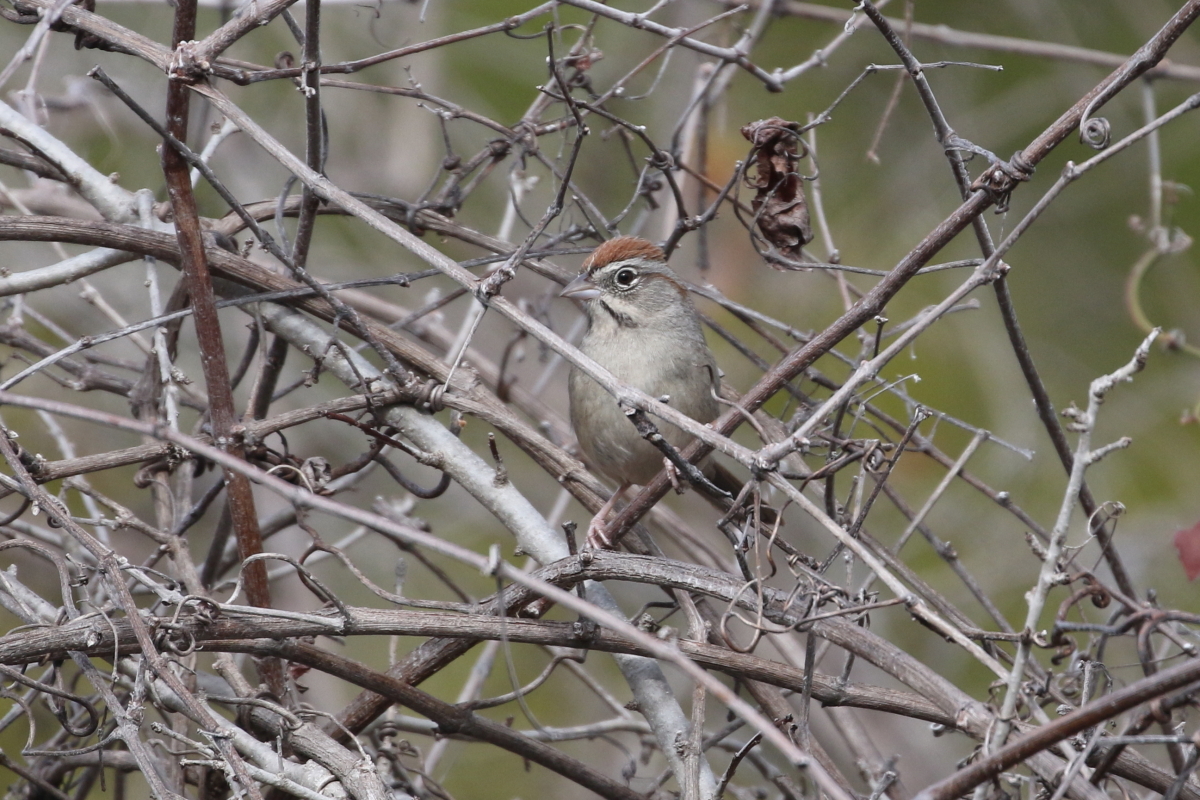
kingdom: Animalia
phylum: Chordata
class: Aves
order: Passeriformes
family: Passerellidae
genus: Aimophila
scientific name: Aimophila ruficeps
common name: Rufous-crowned sparrow
